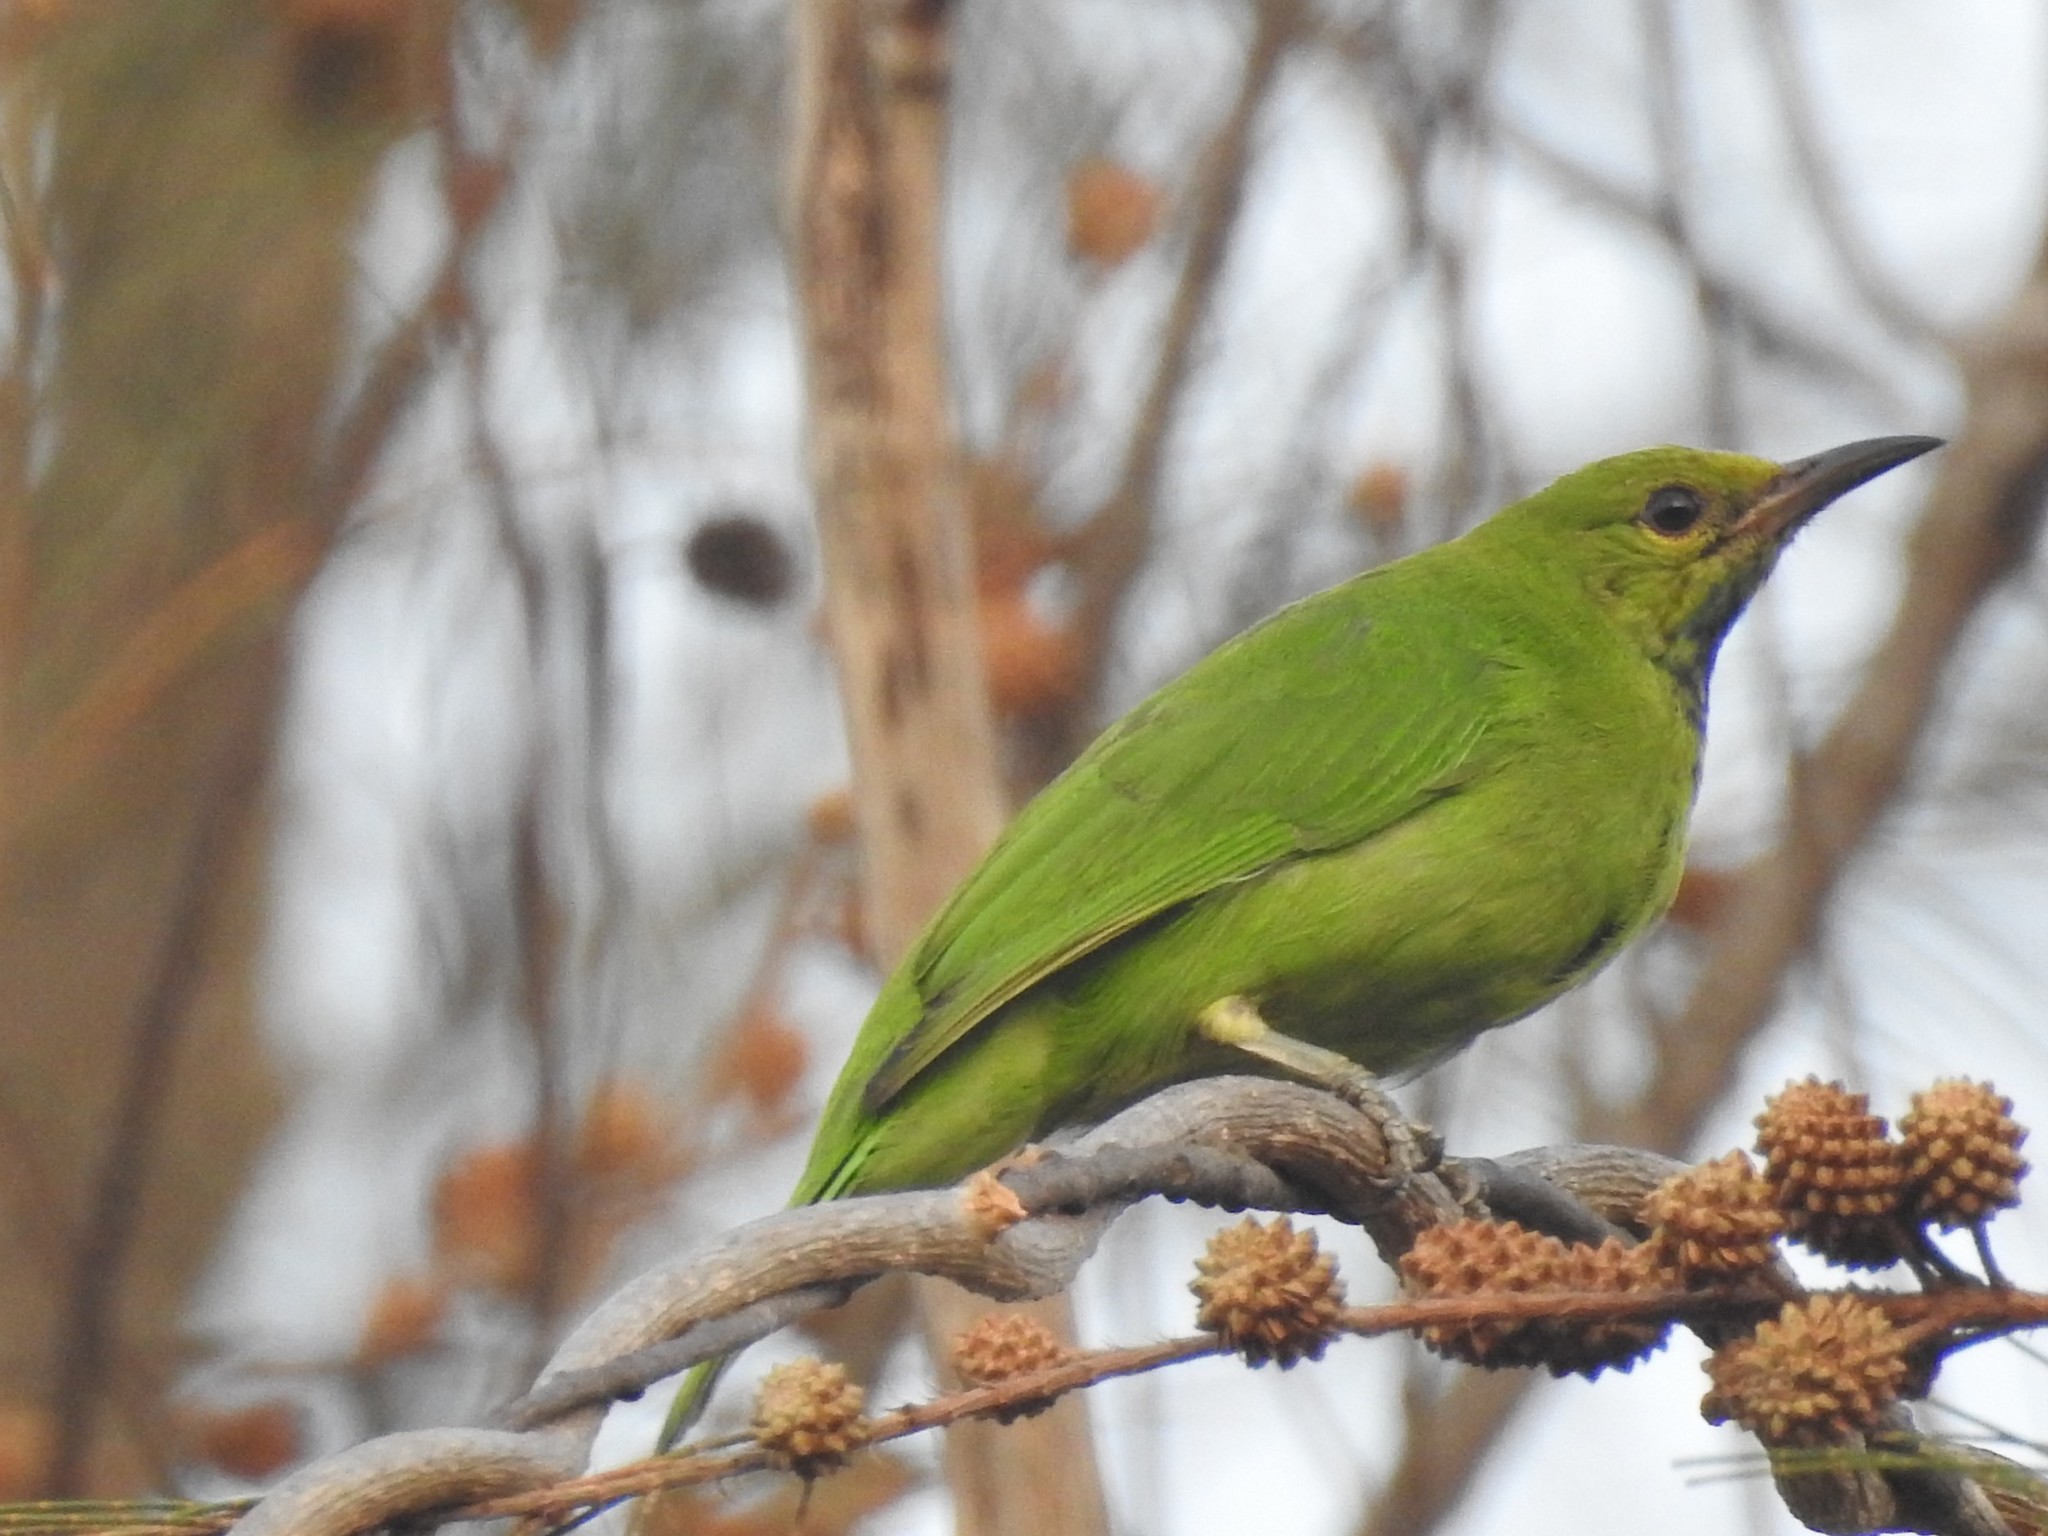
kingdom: Animalia
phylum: Chordata
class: Aves
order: Passeriformes
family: Chloropseidae
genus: Chloropsis
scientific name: Chloropsis jerdoni
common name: Jerdon's leafbird
